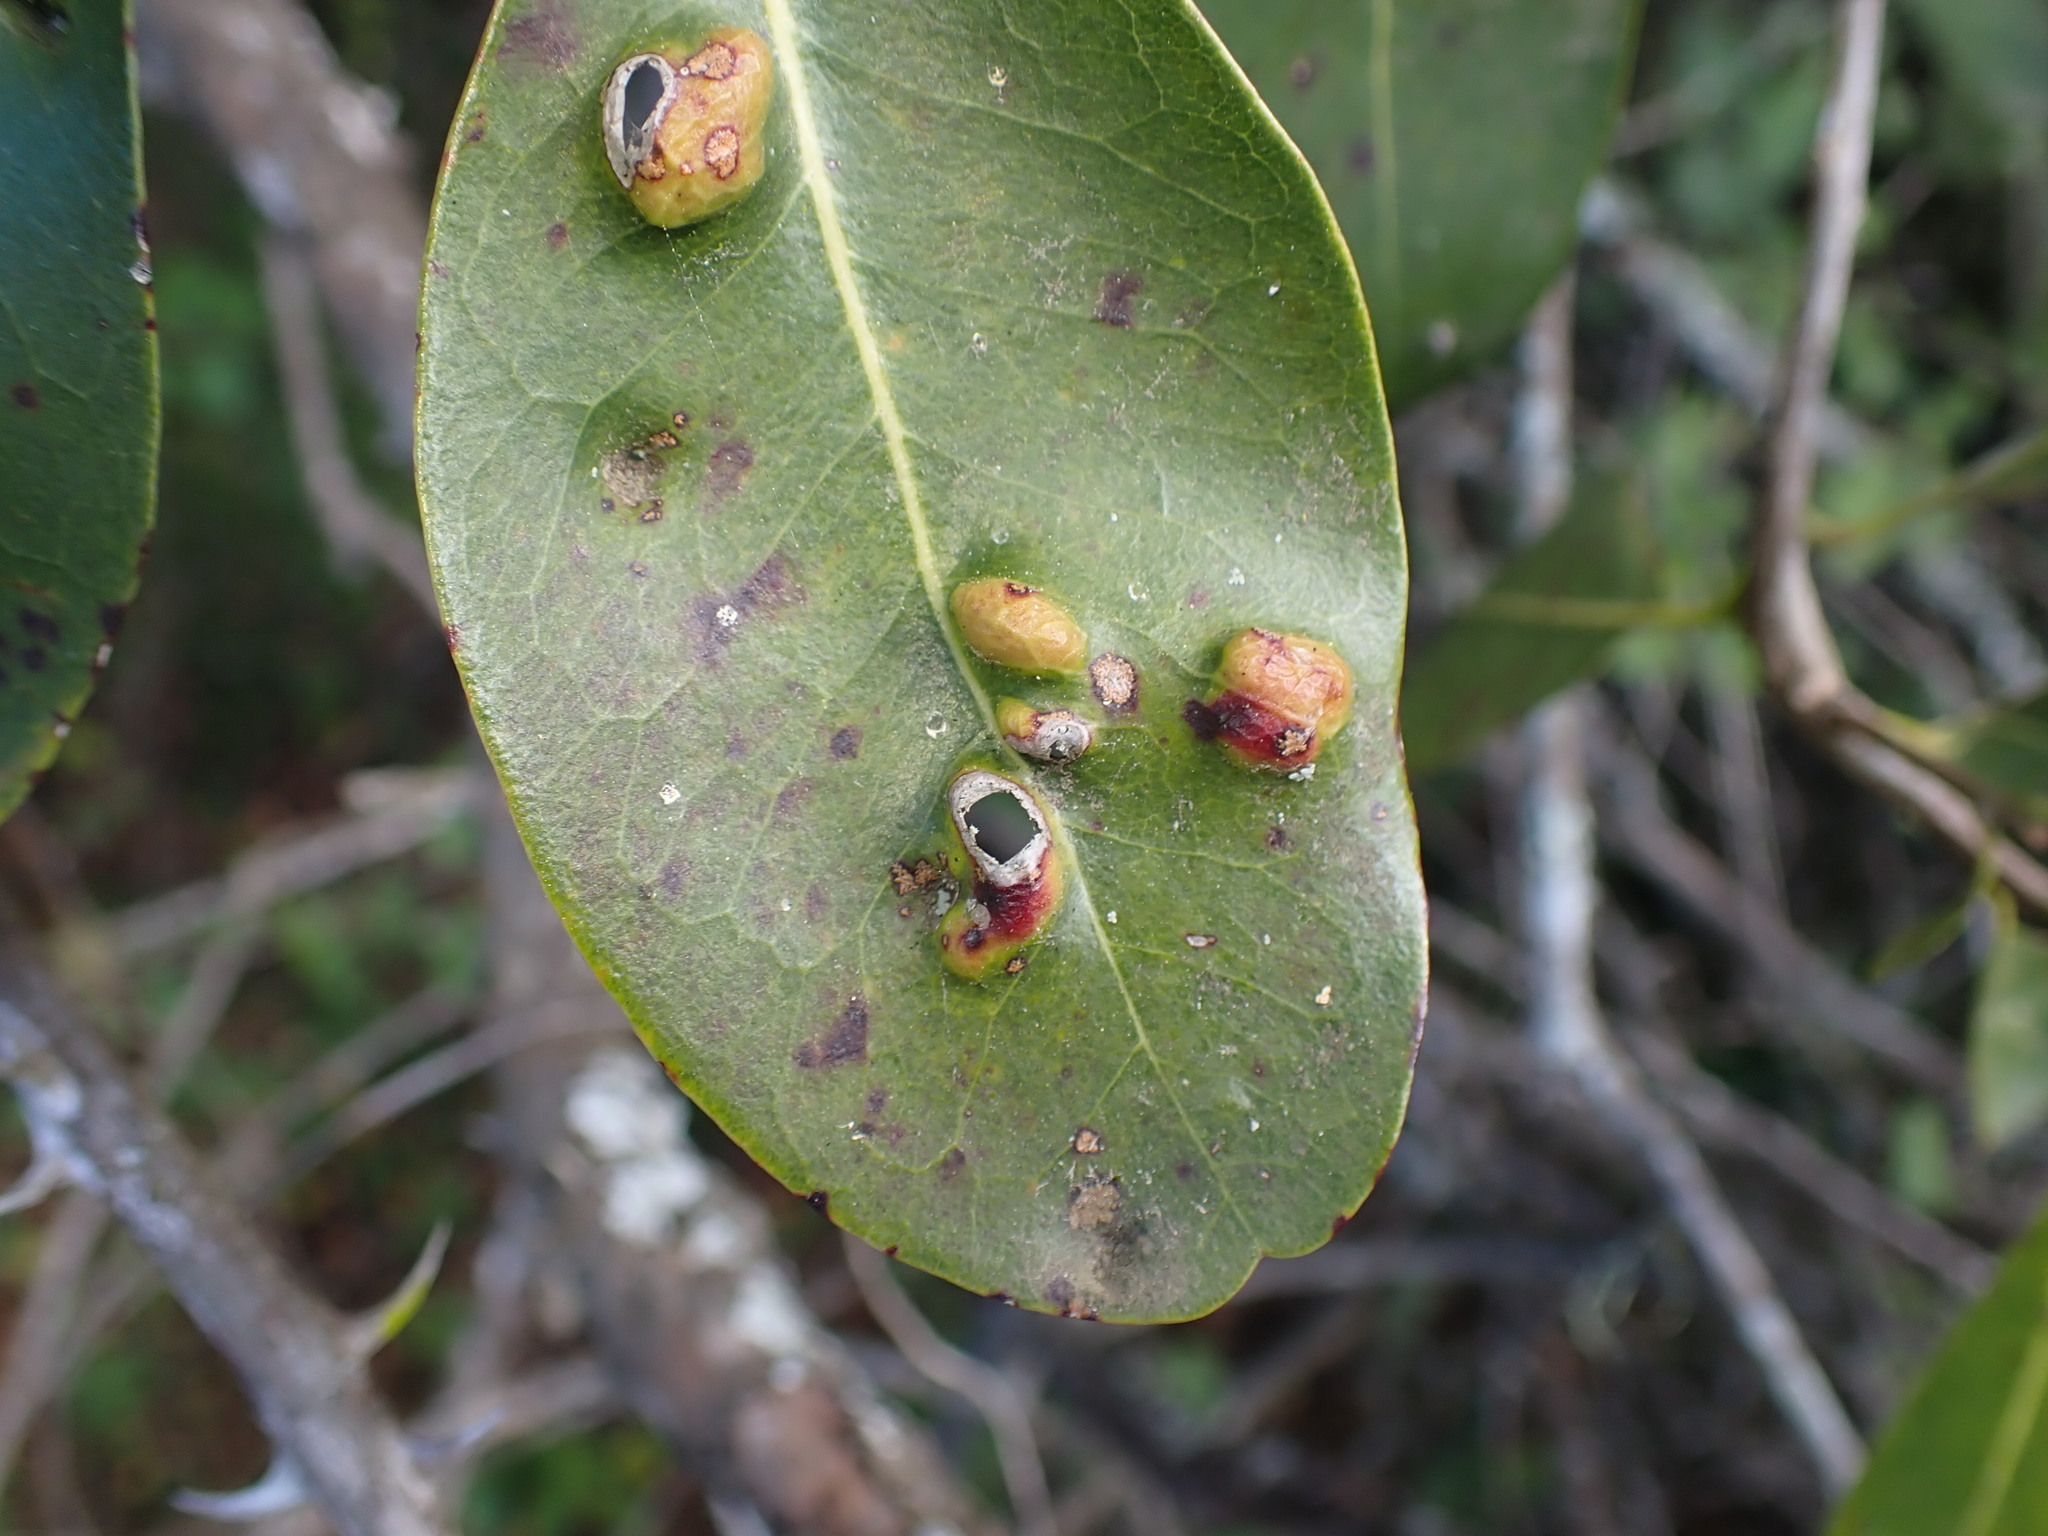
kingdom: Plantae
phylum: Tracheophyta
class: Magnoliopsida
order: Ericales
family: Sapotaceae
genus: Sideroxylon
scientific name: Sideroxylon inerme
